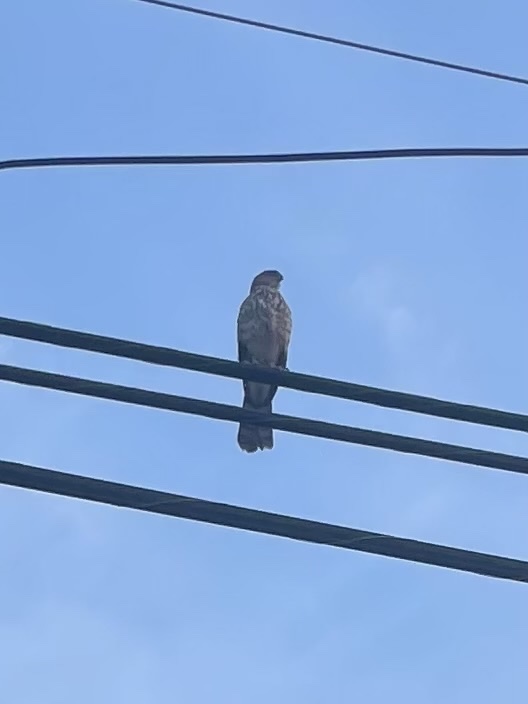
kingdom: Animalia
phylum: Chordata
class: Aves
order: Accipitriformes
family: Accipitridae
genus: Accipiter
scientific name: Accipiter cooperii
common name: Cooper's hawk
